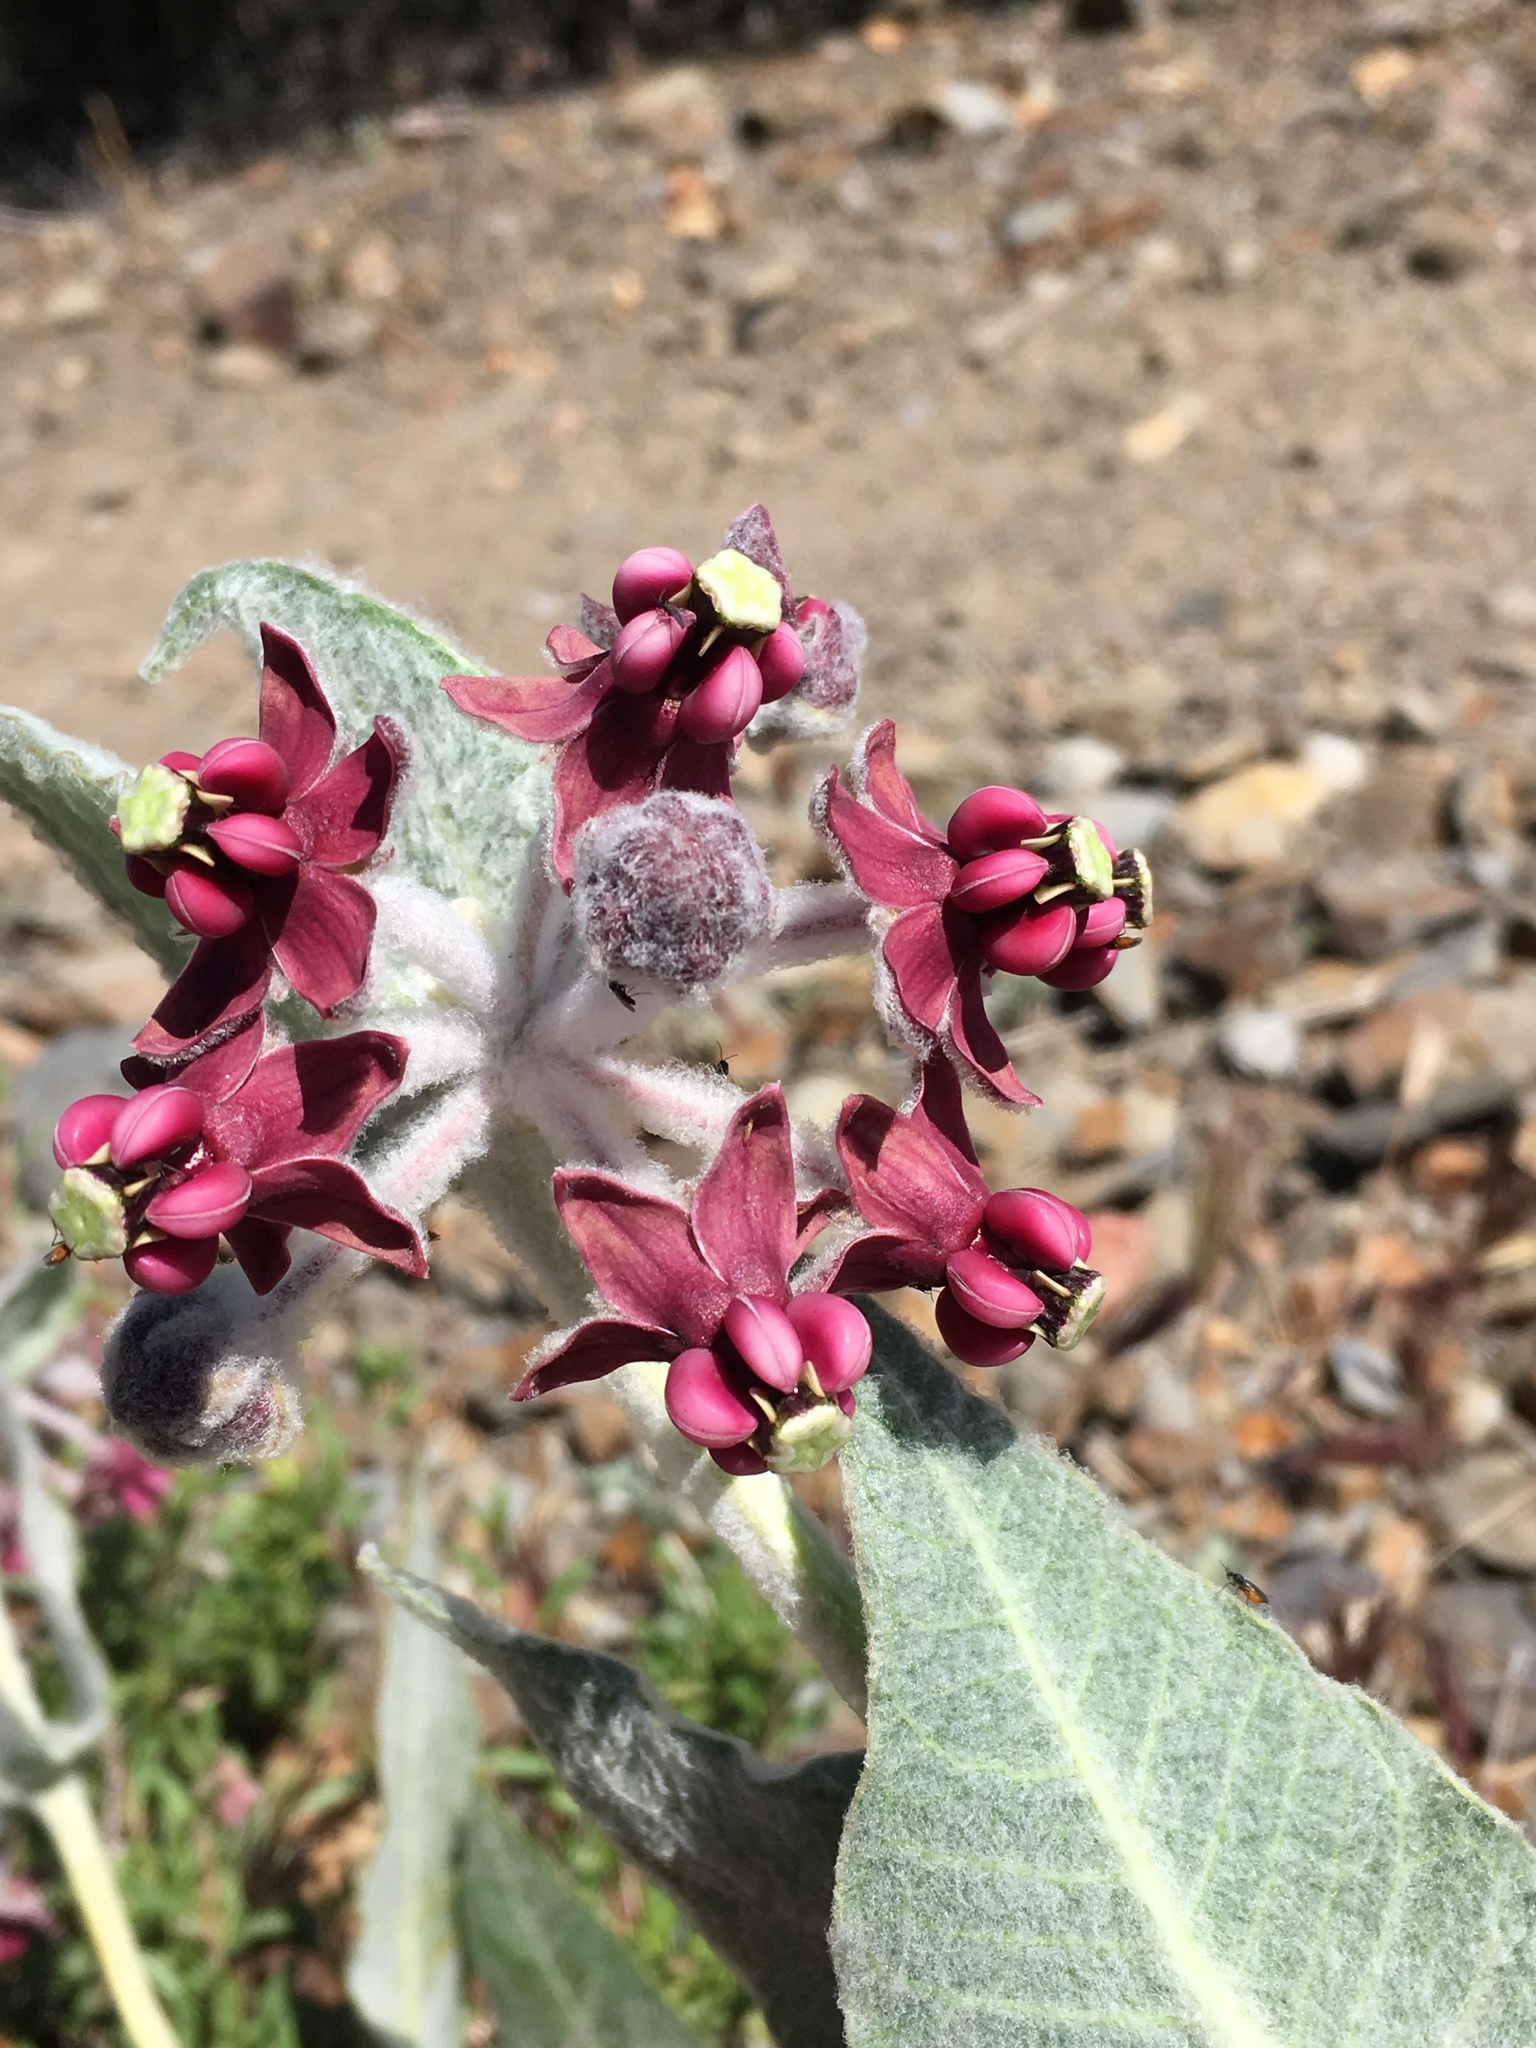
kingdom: Plantae
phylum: Tracheophyta
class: Magnoliopsida
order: Gentianales
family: Apocynaceae
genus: Asclepias
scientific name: Asclepias californica
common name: California milkweed
